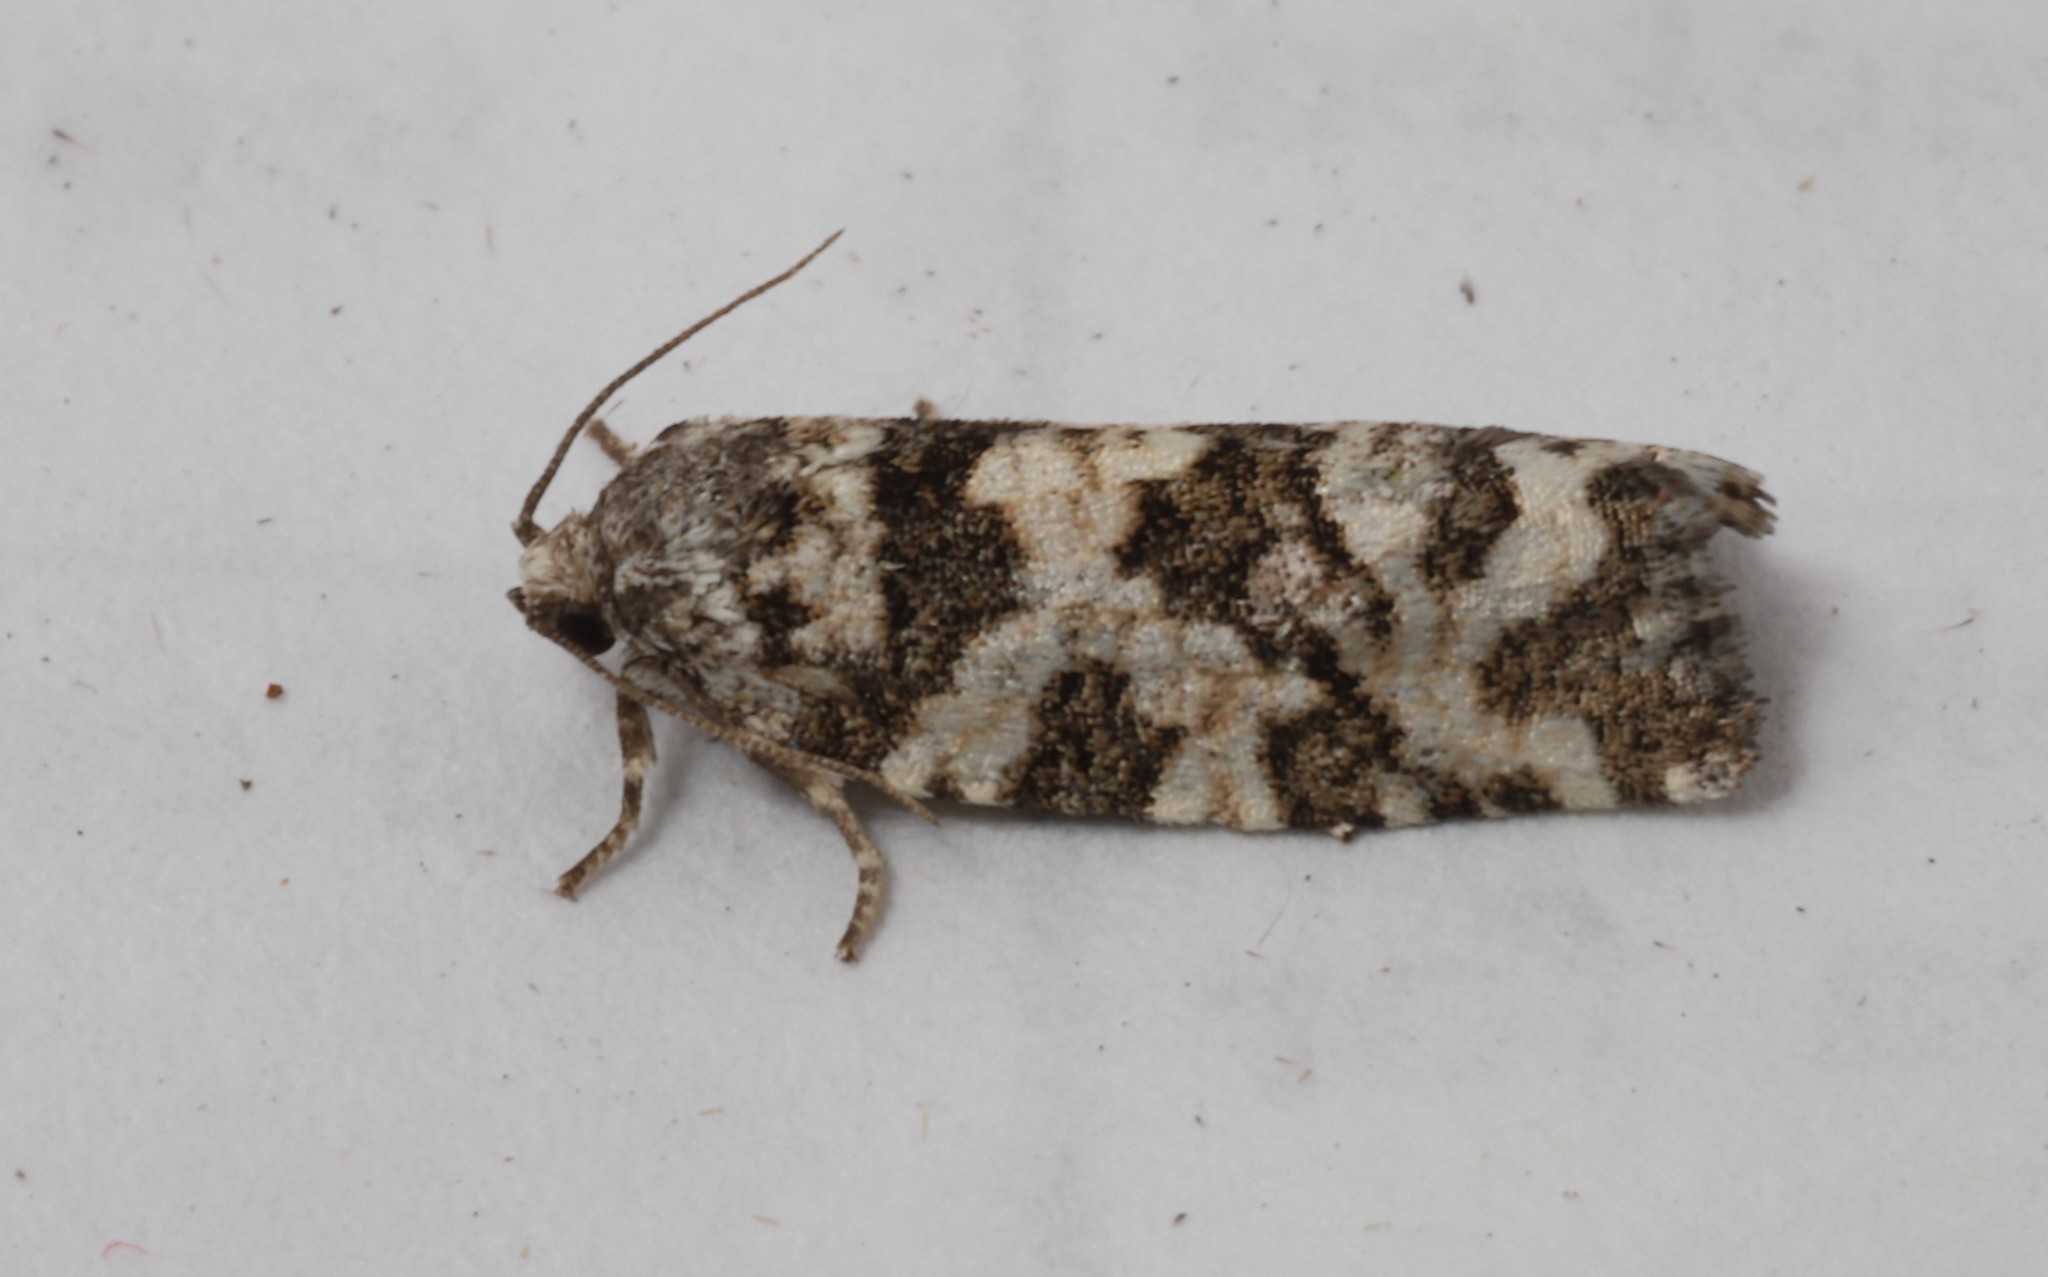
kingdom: Animalia
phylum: Arthropoda
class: Insecta
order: Lepidoptera
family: Tortricidae
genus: Archips
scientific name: Archips packardiana
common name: Spring spruce needle moth
